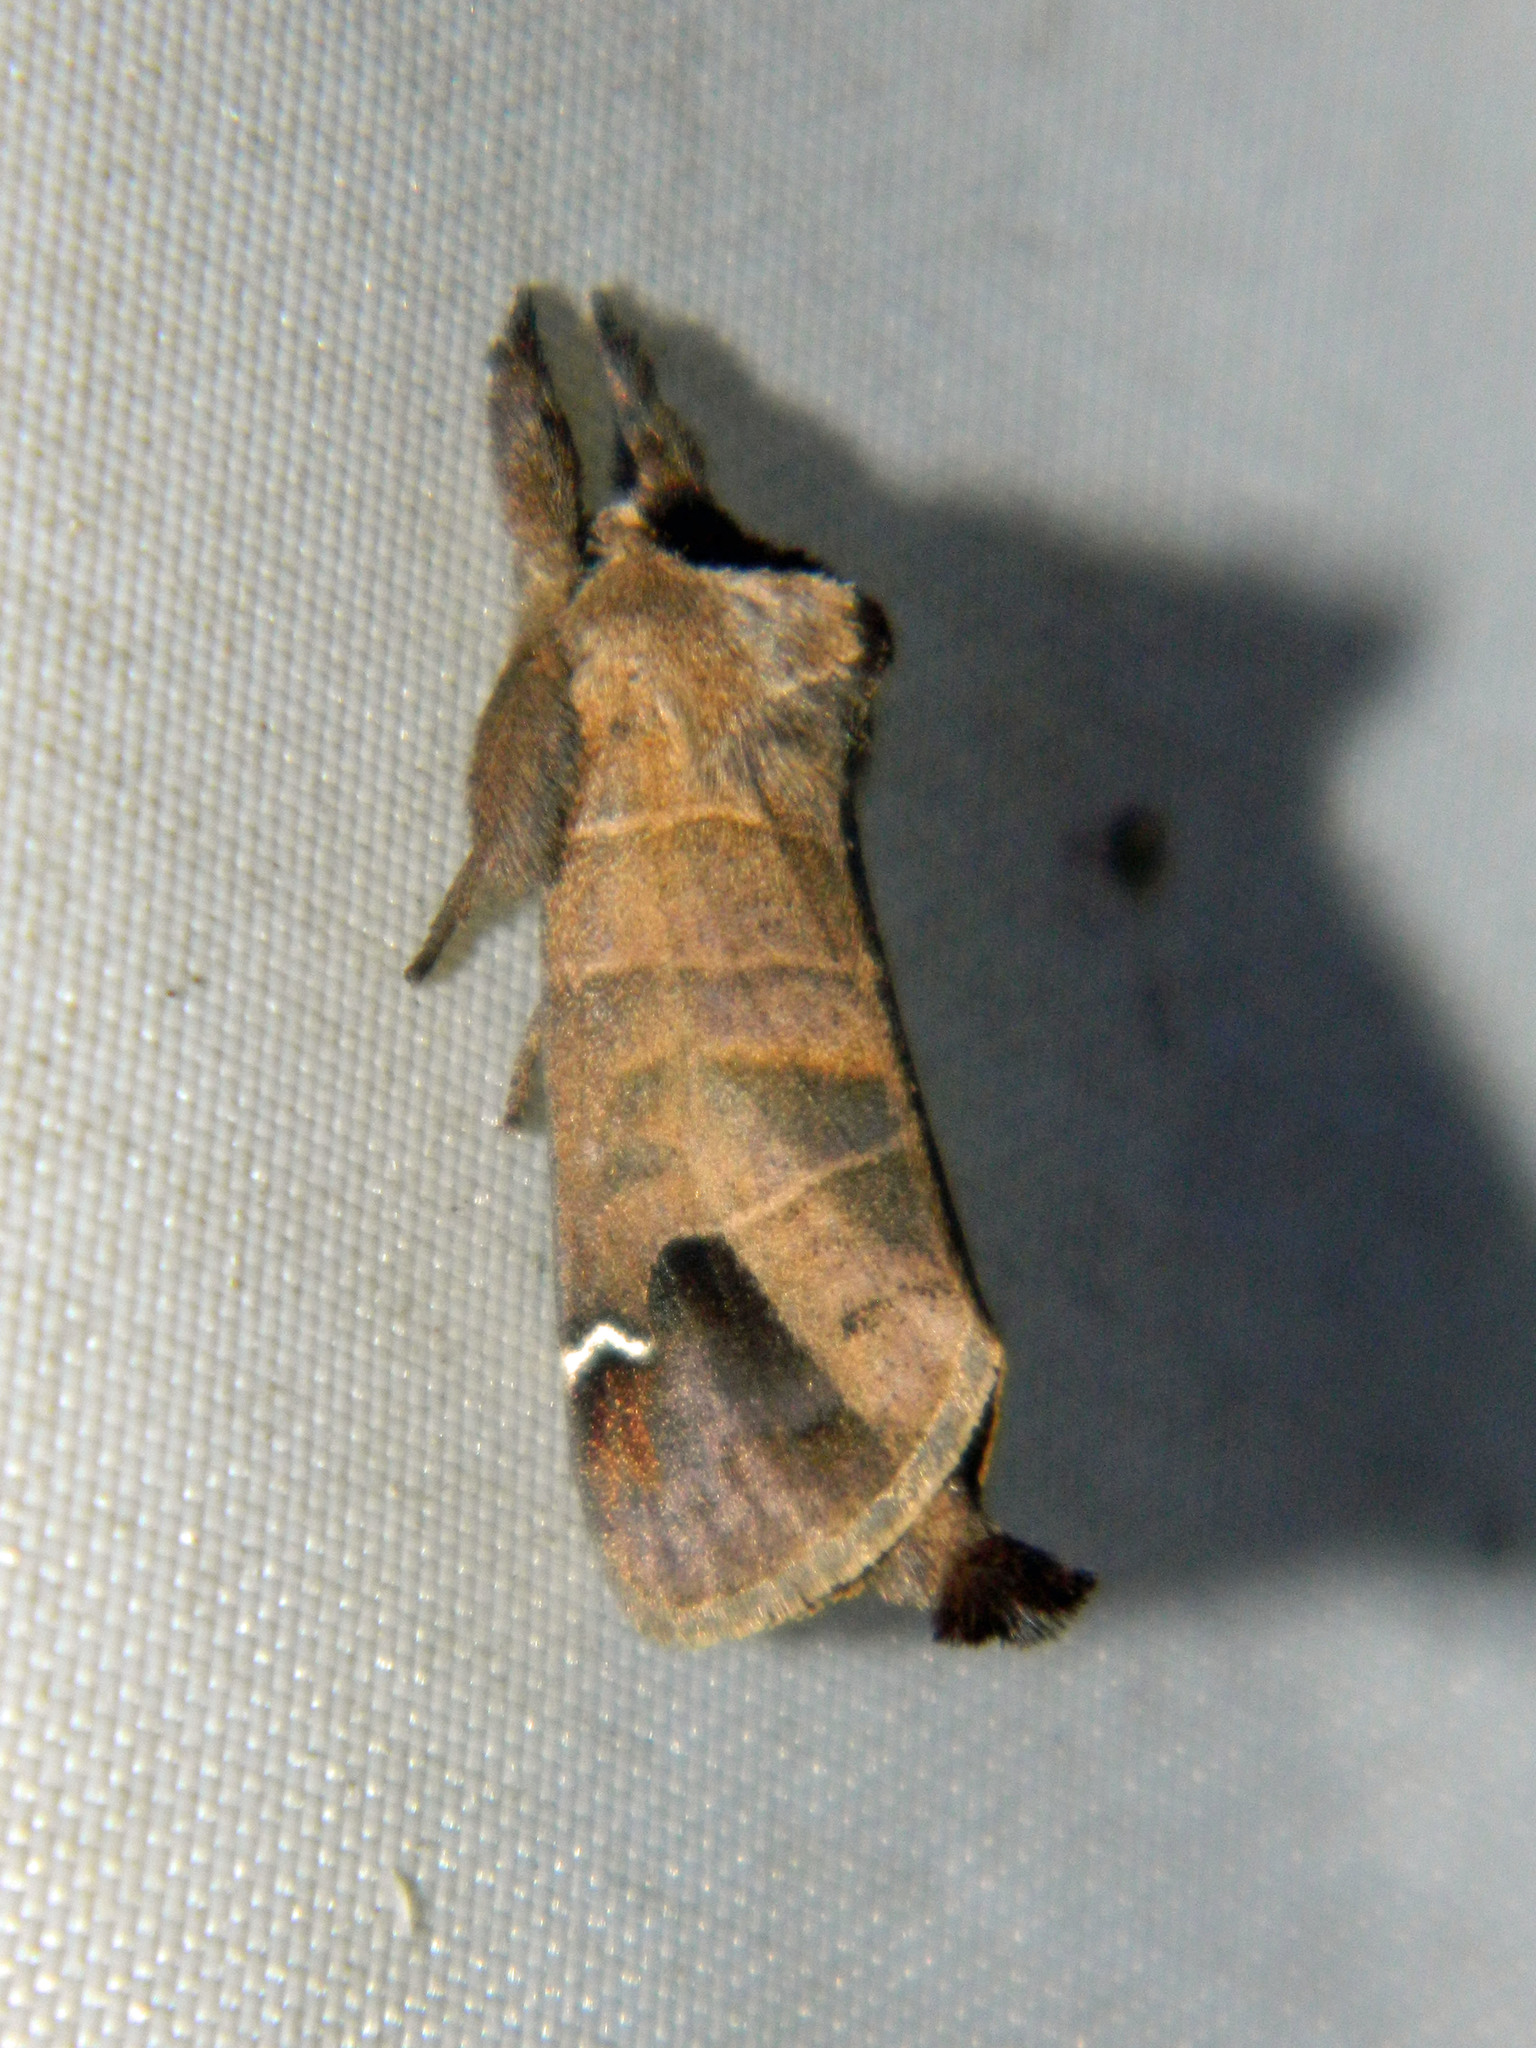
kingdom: Animalia
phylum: Arthropoda
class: Insecta
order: Lepidoptera
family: Notodontidae
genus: Clostera
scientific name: Clostera albosigma
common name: Sigmoid prominent
